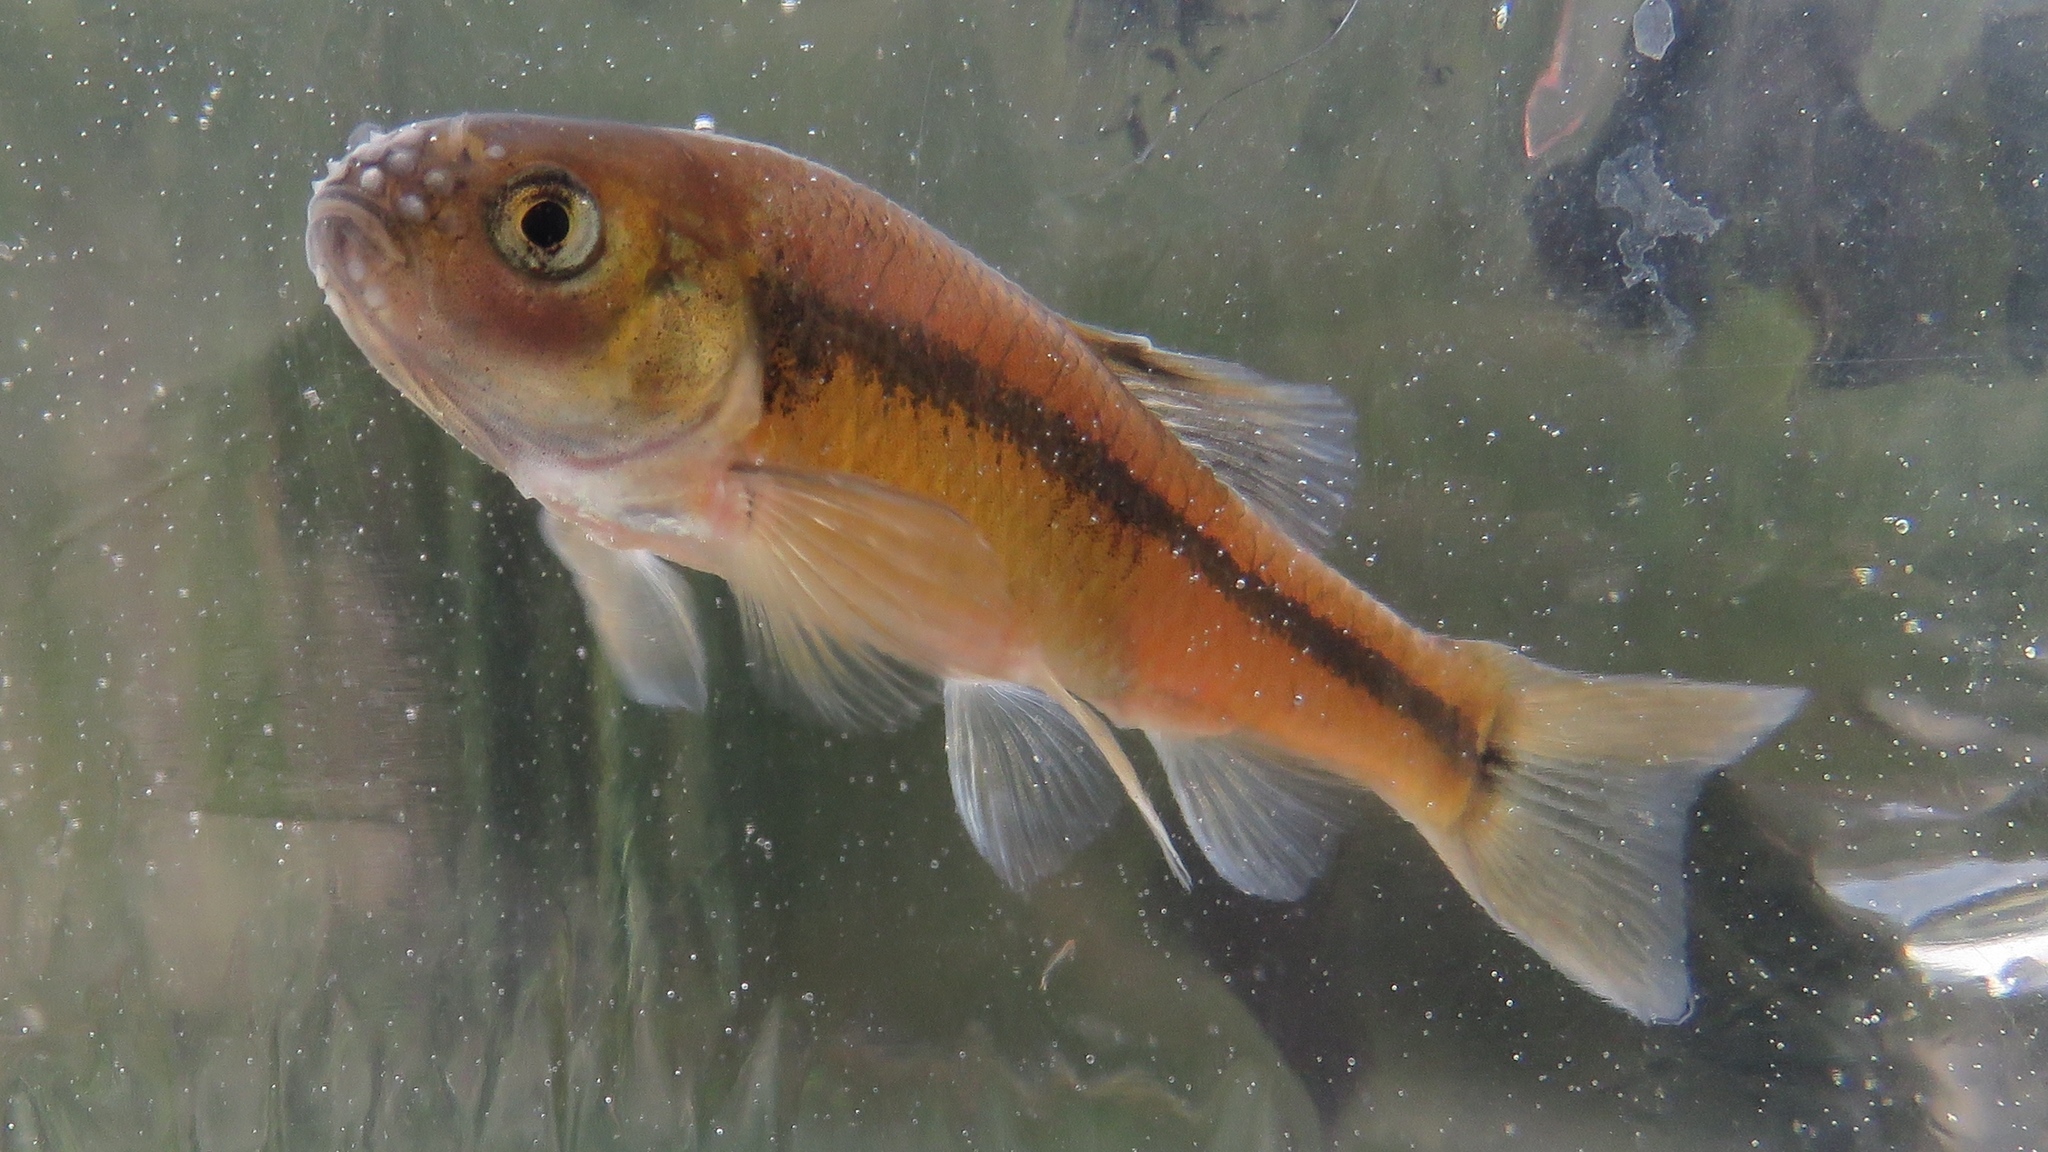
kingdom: Animalia
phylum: Chordata
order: Cypriniformes
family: Cyprinidae
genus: Pimephales
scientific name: Pimephales promelas
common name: Fathead minnow
